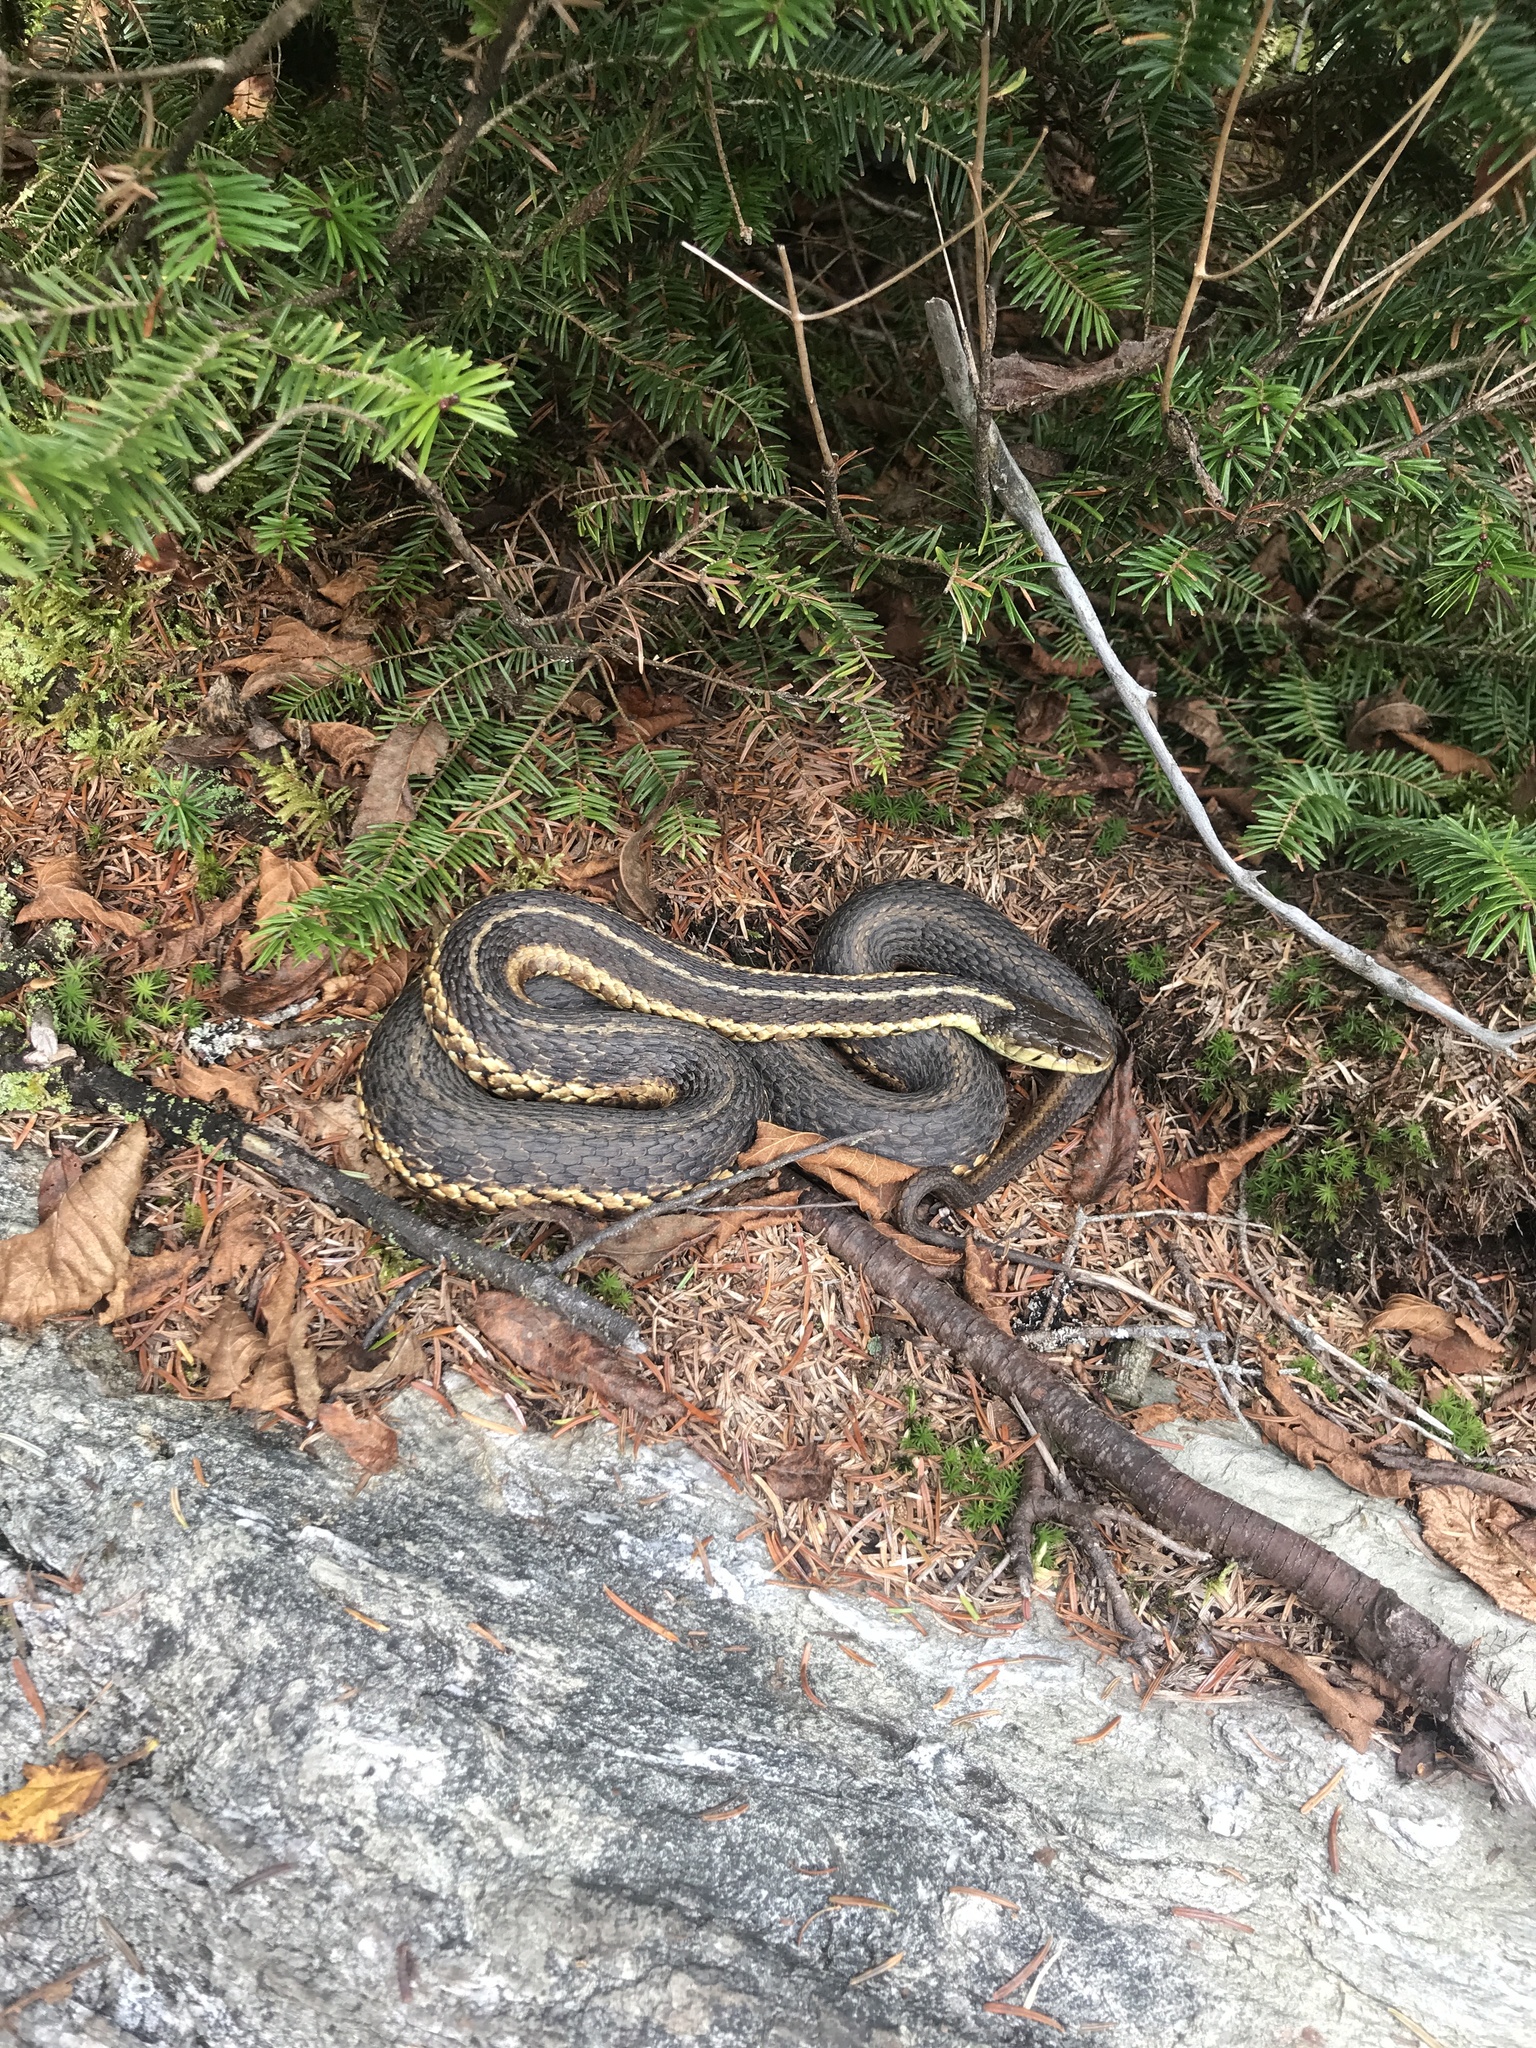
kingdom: Animalia
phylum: Chordata
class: Squamata
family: Colubridae
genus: Thamnophis
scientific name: Thamnophis sirtalis
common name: Common garter snake
